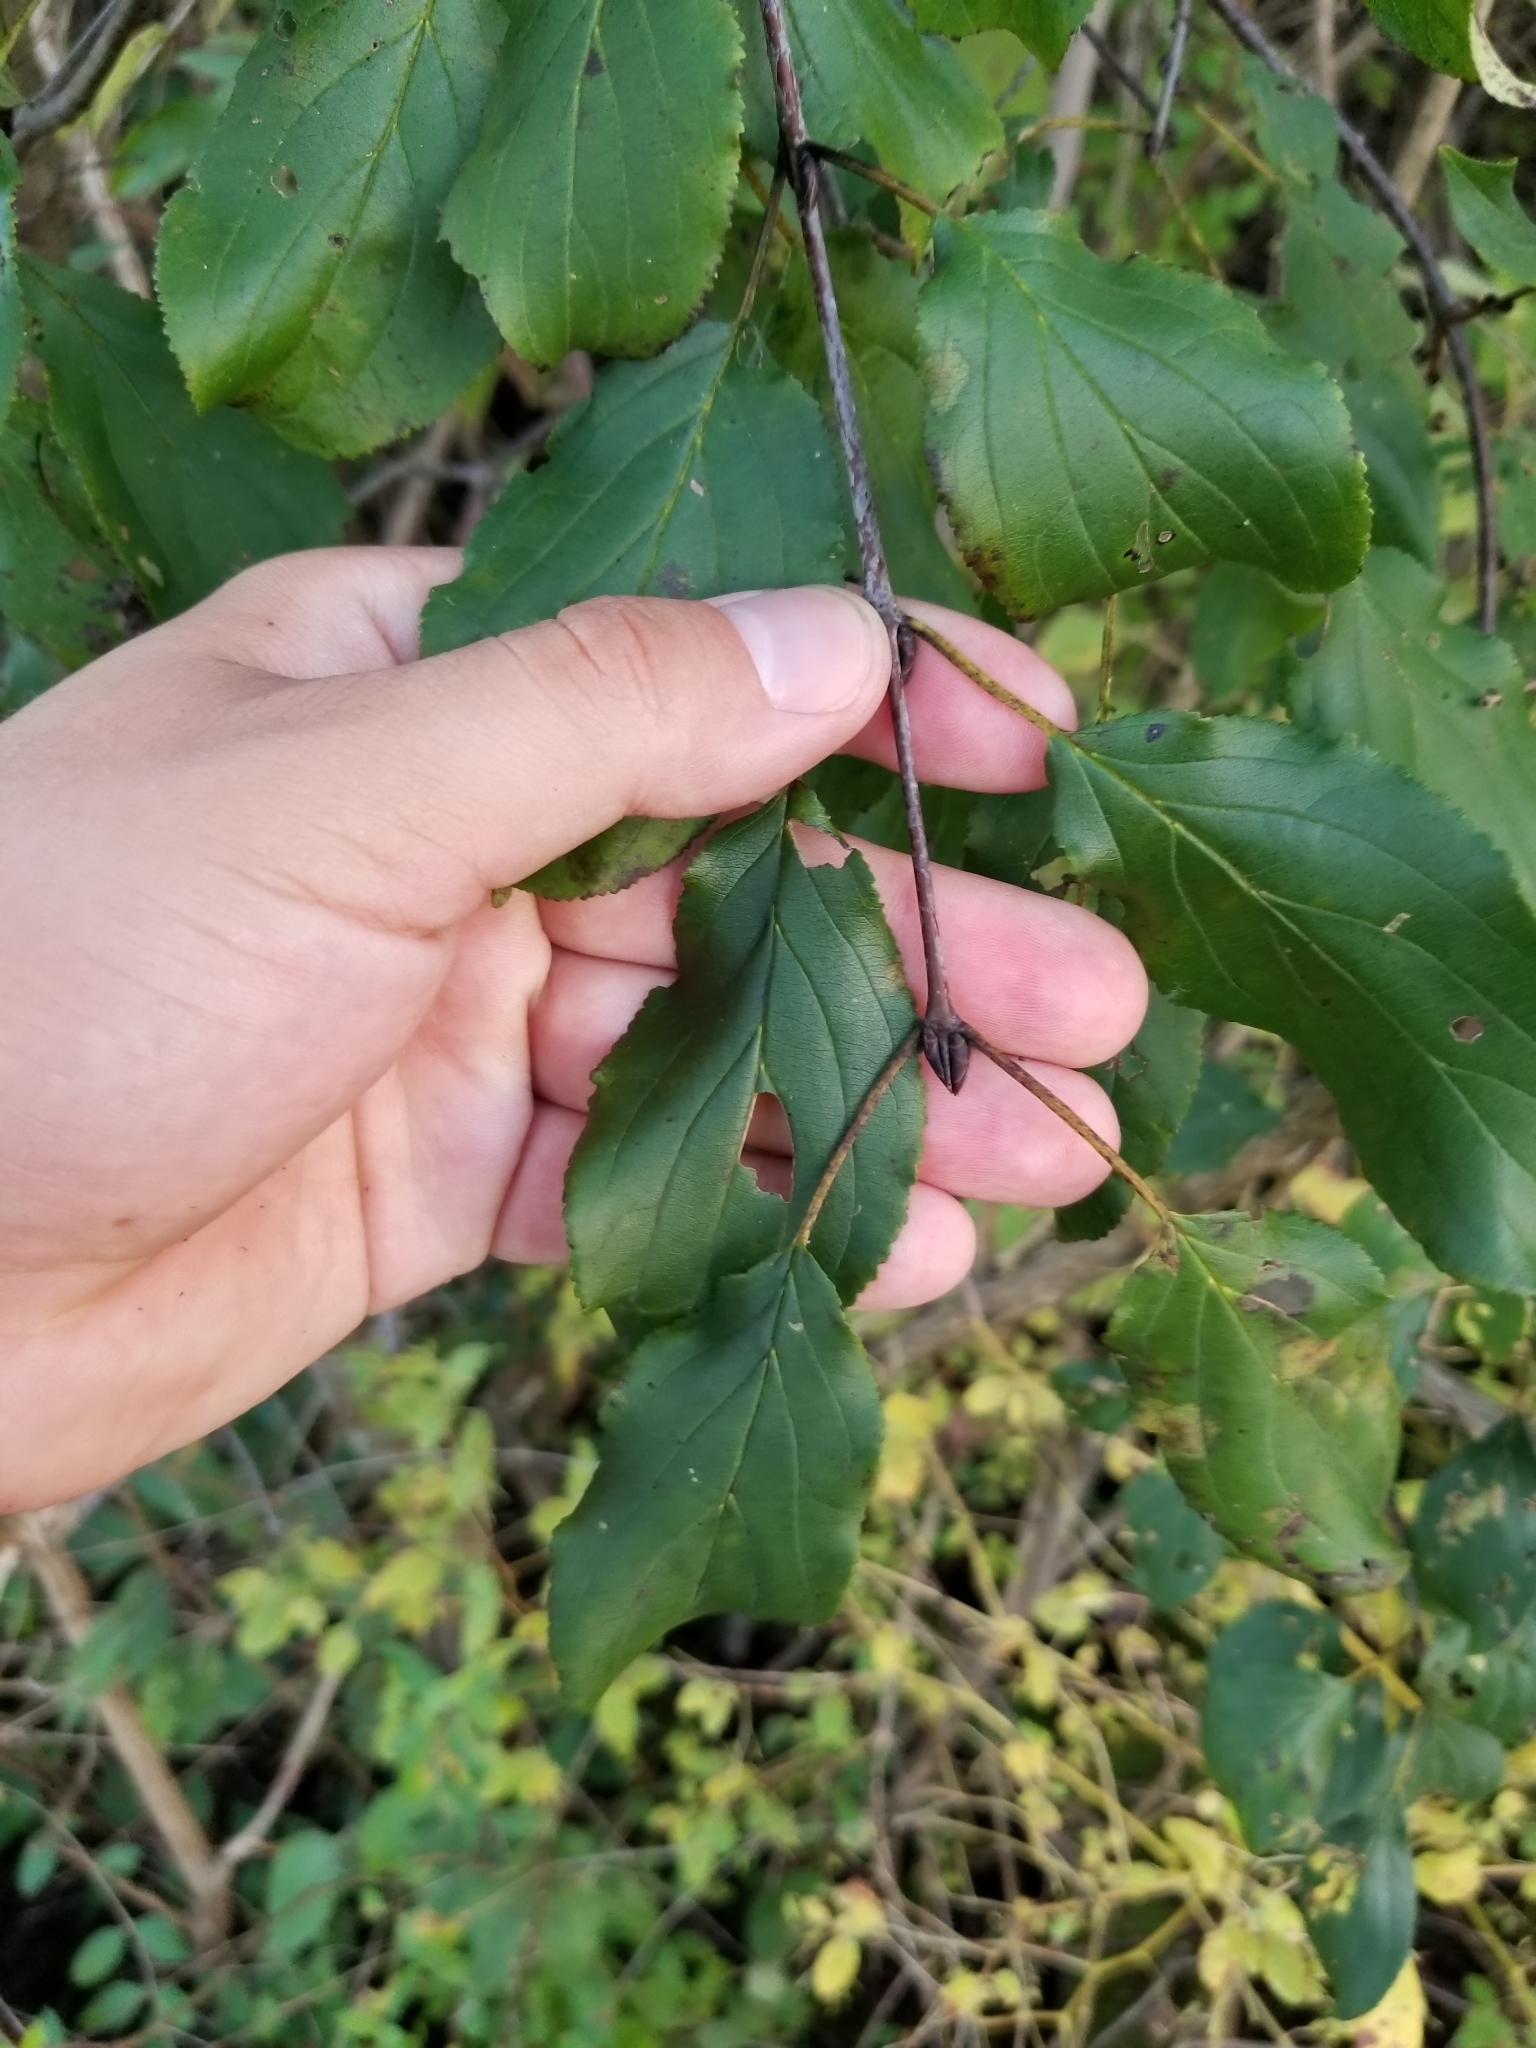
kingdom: Plantae
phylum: Tracheophyta
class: Magnoliopsida
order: Rosales
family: Rhamnaceae
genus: Rhamnus
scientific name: Rhamnus cathartica
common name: Common buckthorn
